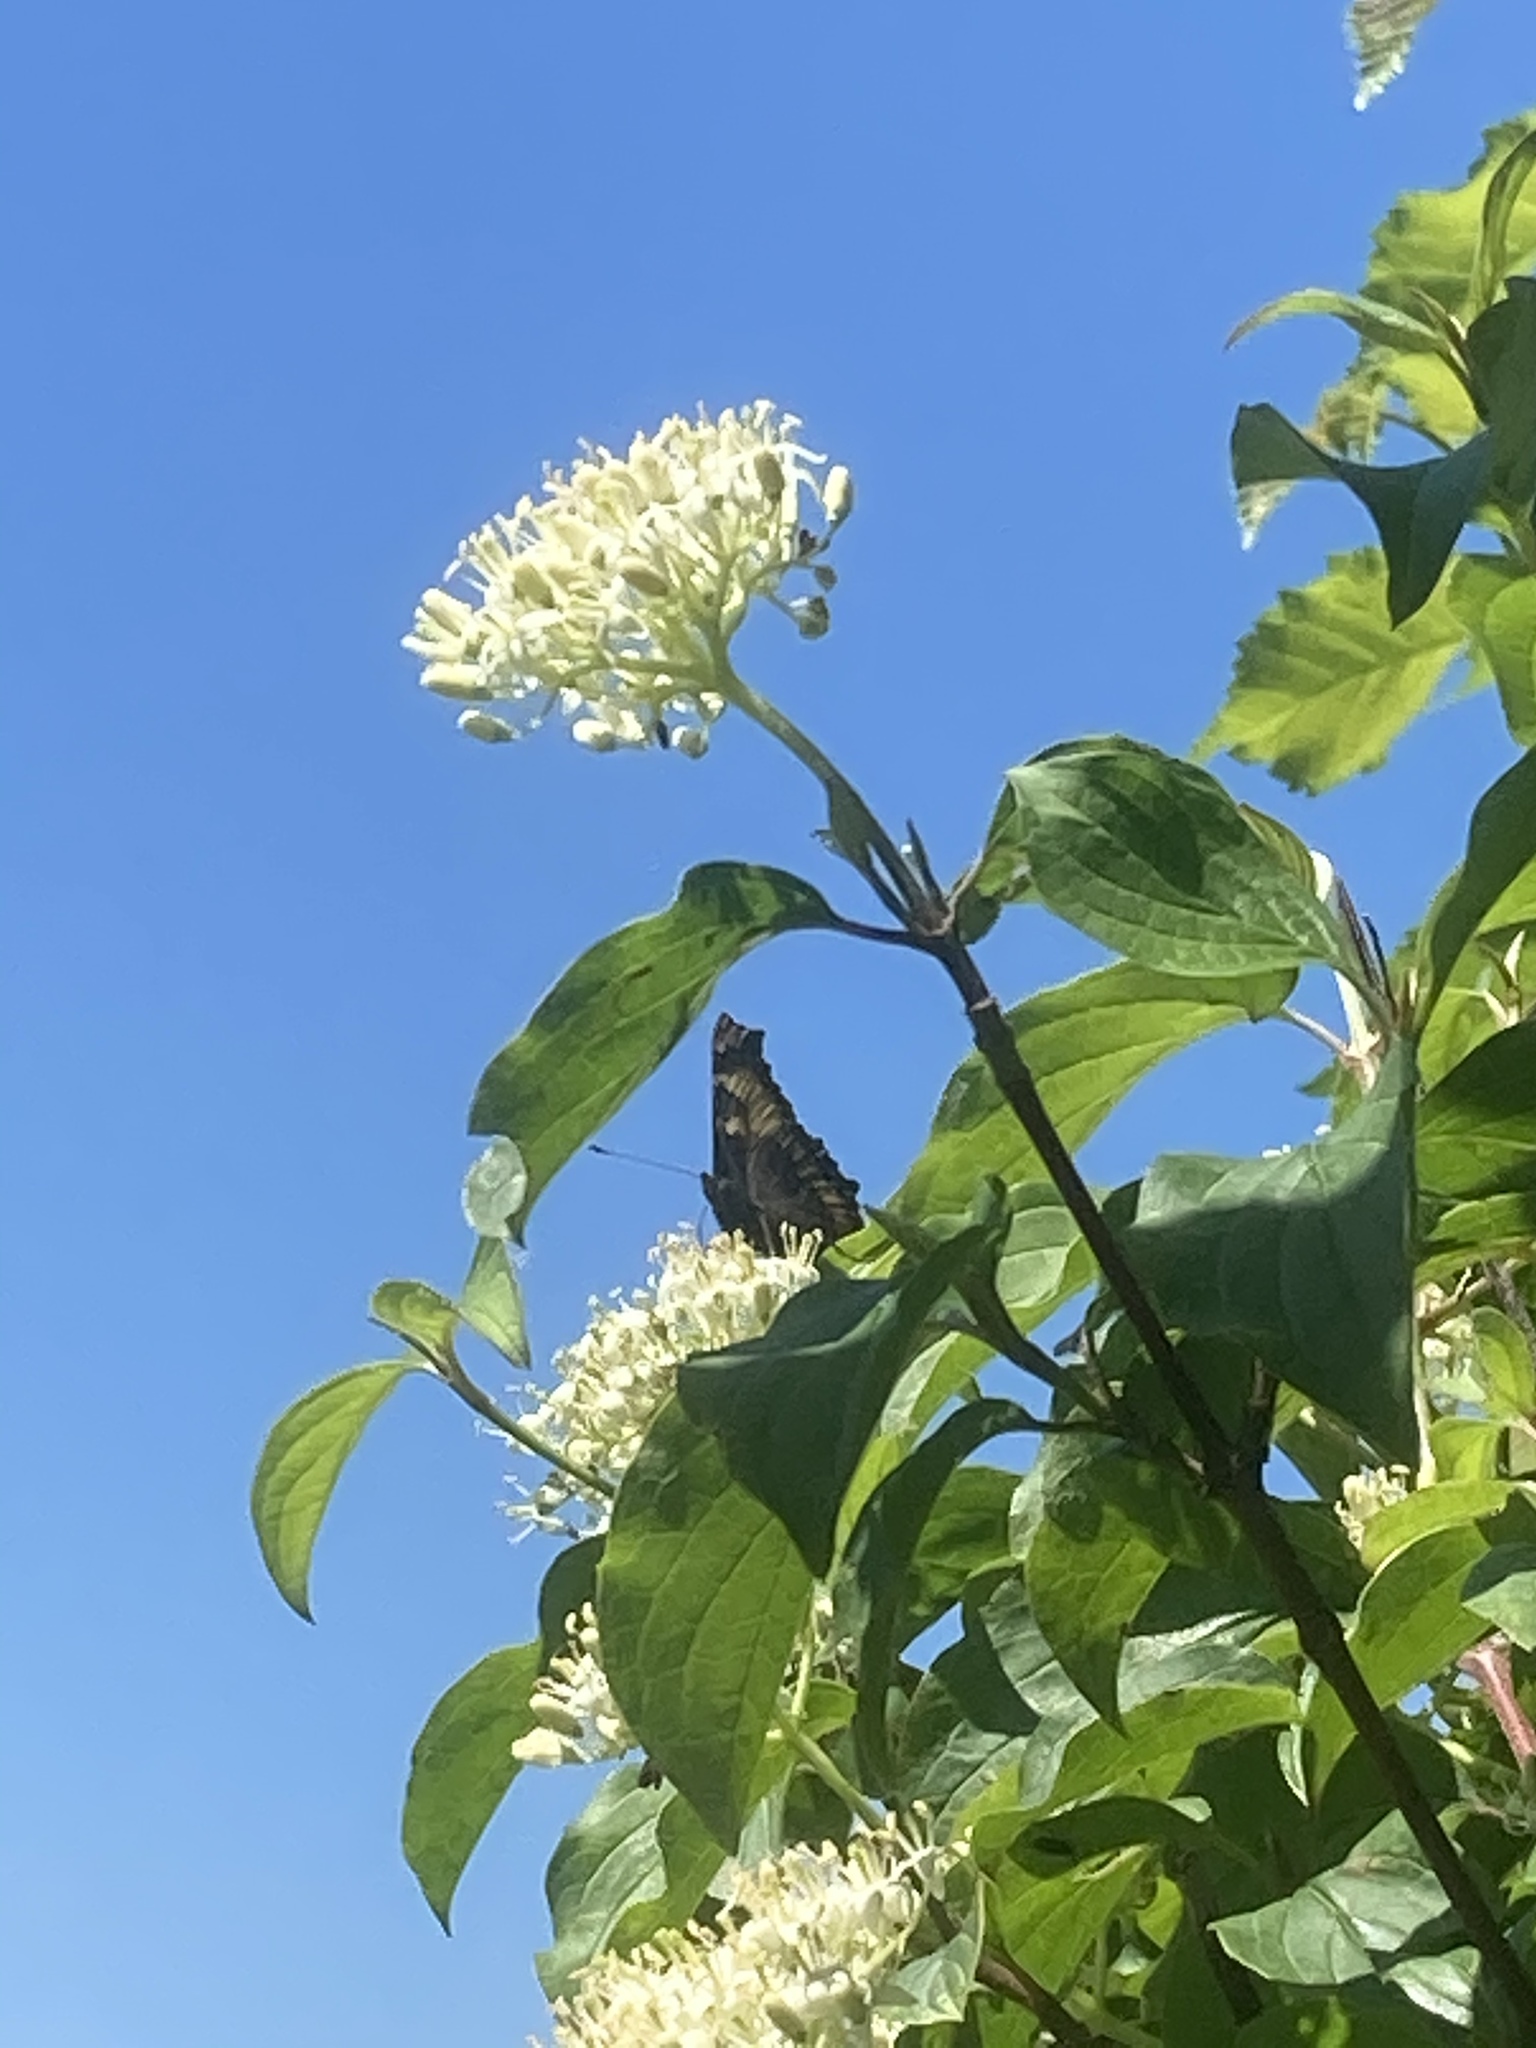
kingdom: Animalia
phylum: Arthropoda
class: Insecta
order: Lepidoptera
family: Nymphalidae
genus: Aglais
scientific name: Aglais urticae
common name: Small tortoiseshell
